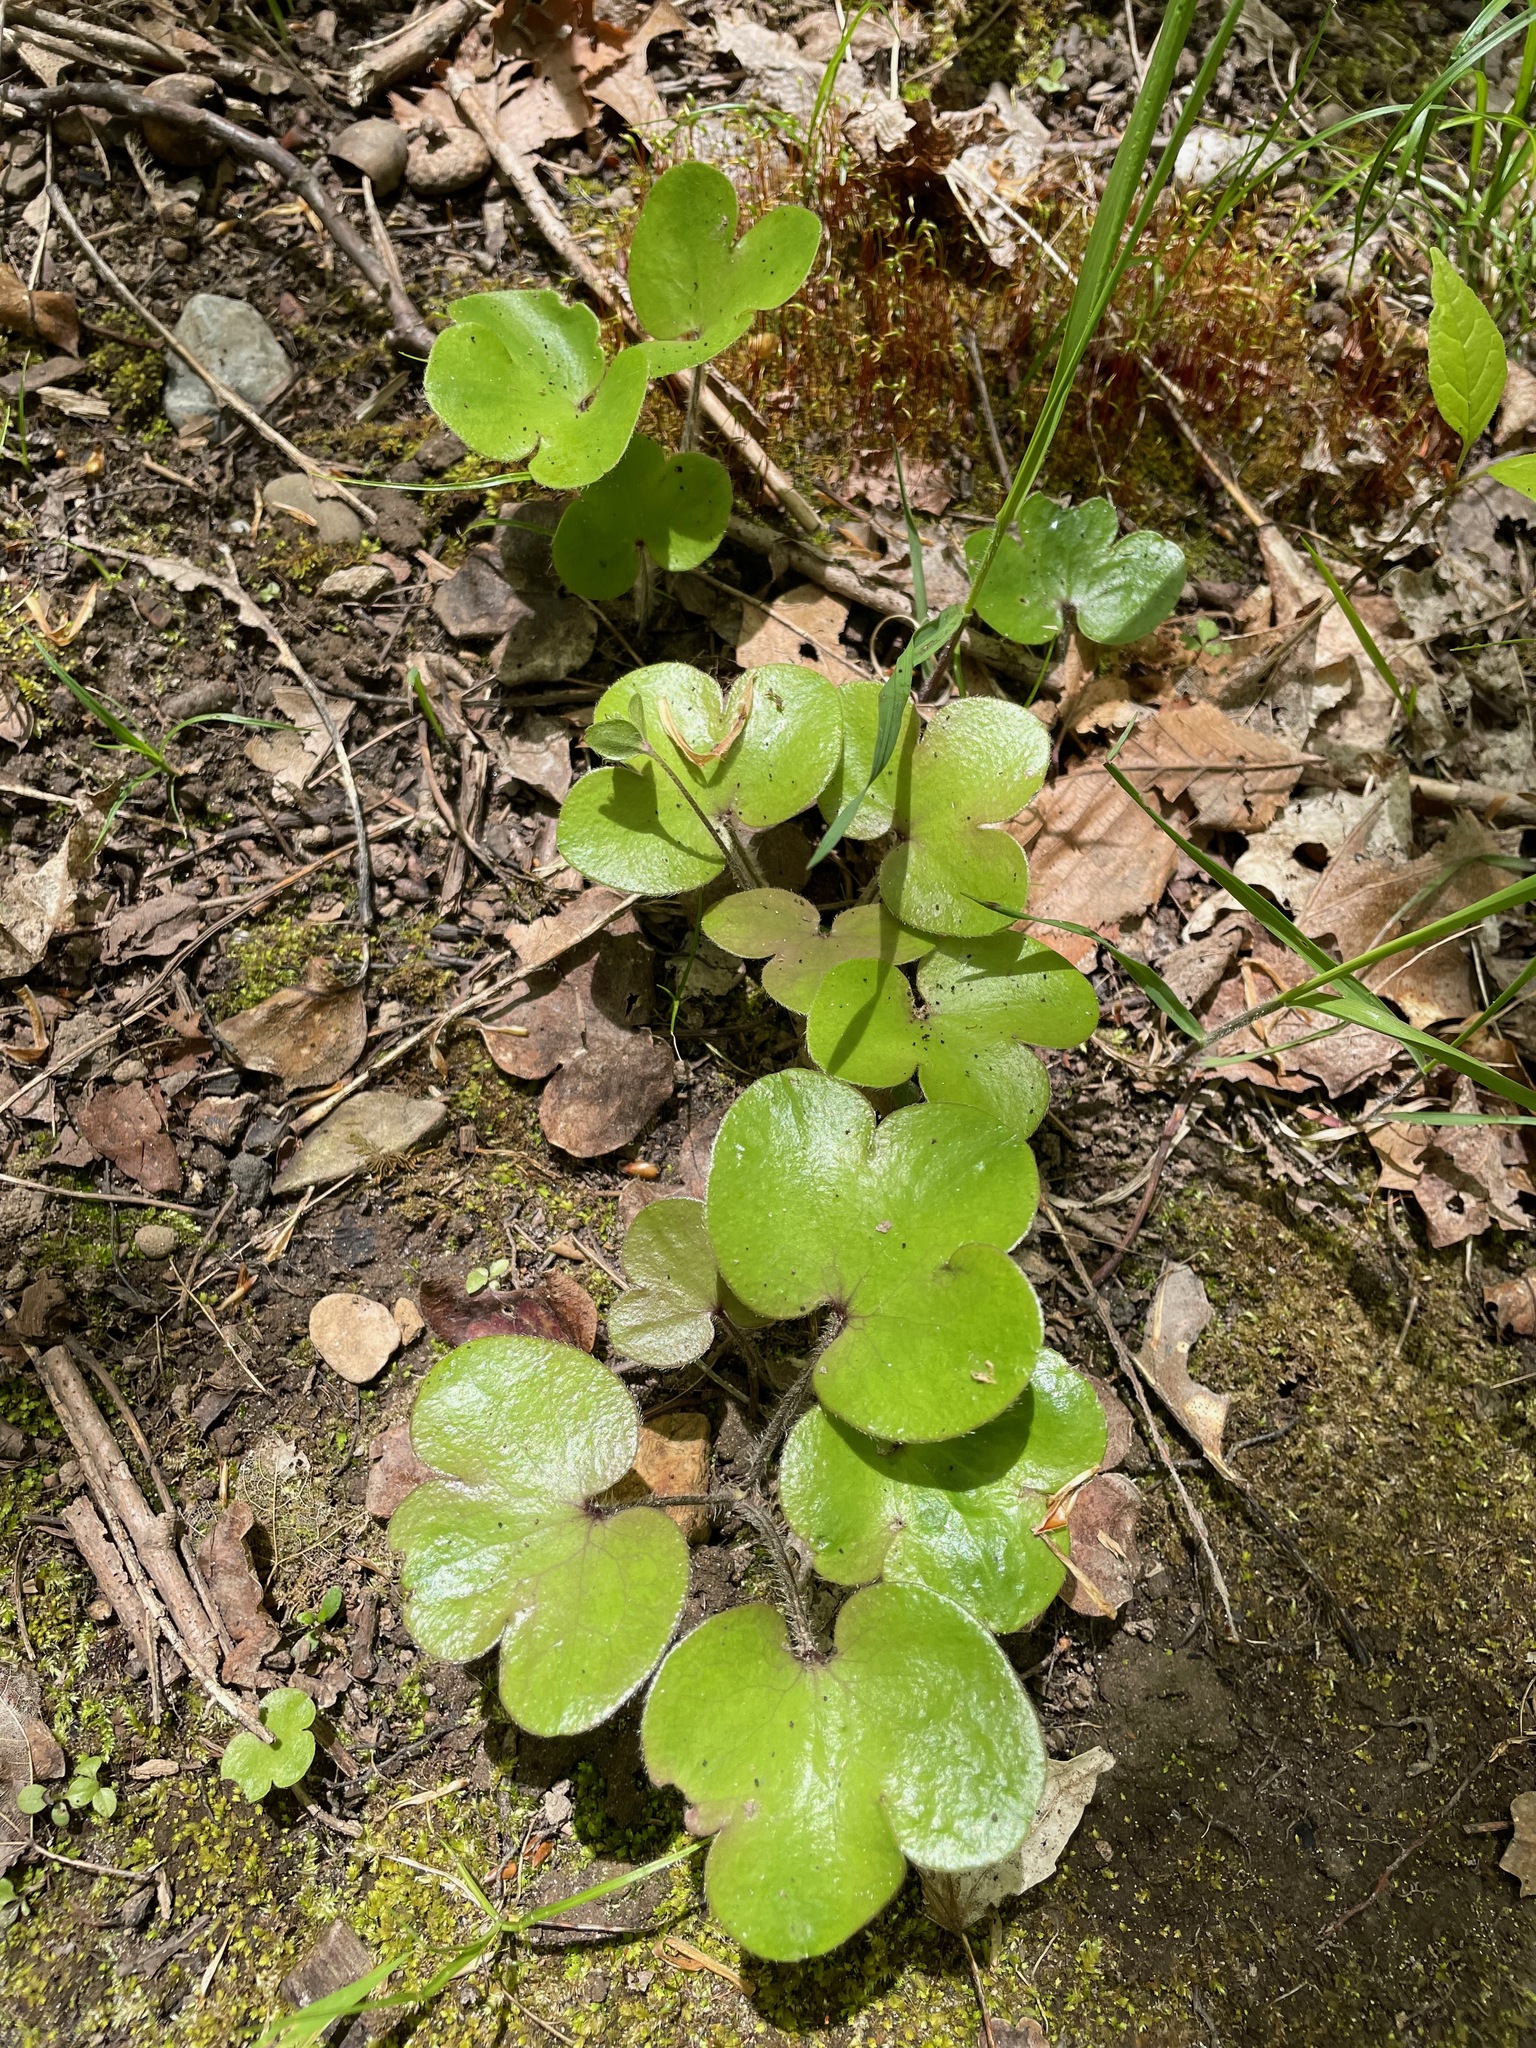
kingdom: Plantae
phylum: Tracheophyta
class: Magnoliopsida
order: Ranunculales
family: Ranunculaceae
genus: Hepatica
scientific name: Hepatica americana
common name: American hepatica
